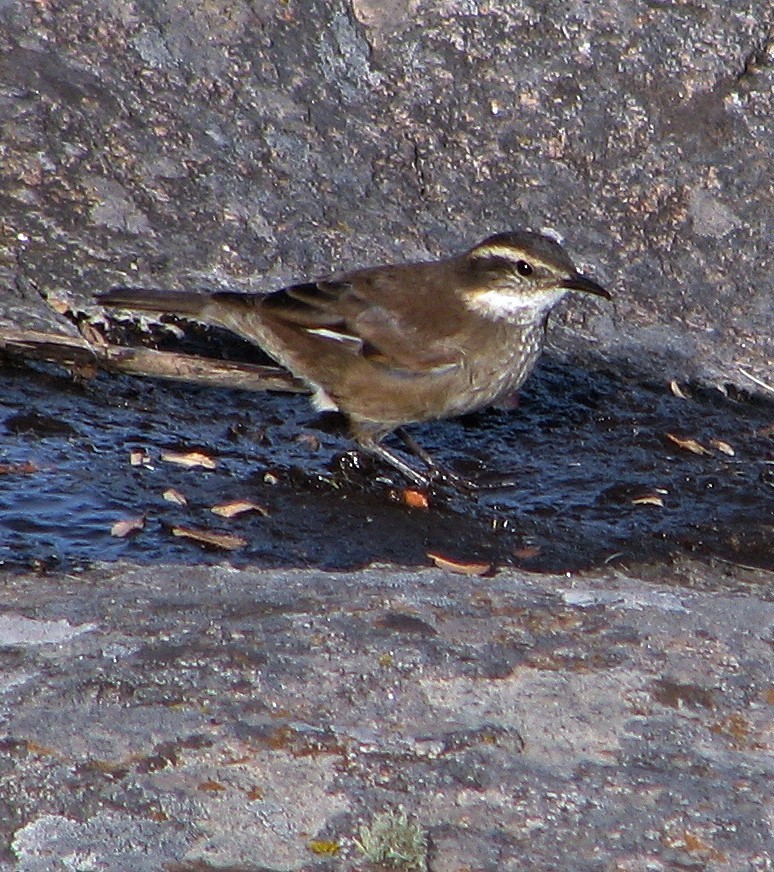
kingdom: Animalia
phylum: Chordata
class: Aves
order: Passeriformes
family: Furnariidae
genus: Cinclodes
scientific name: Cinclodes olrogi
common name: Olrog's cinclodes
